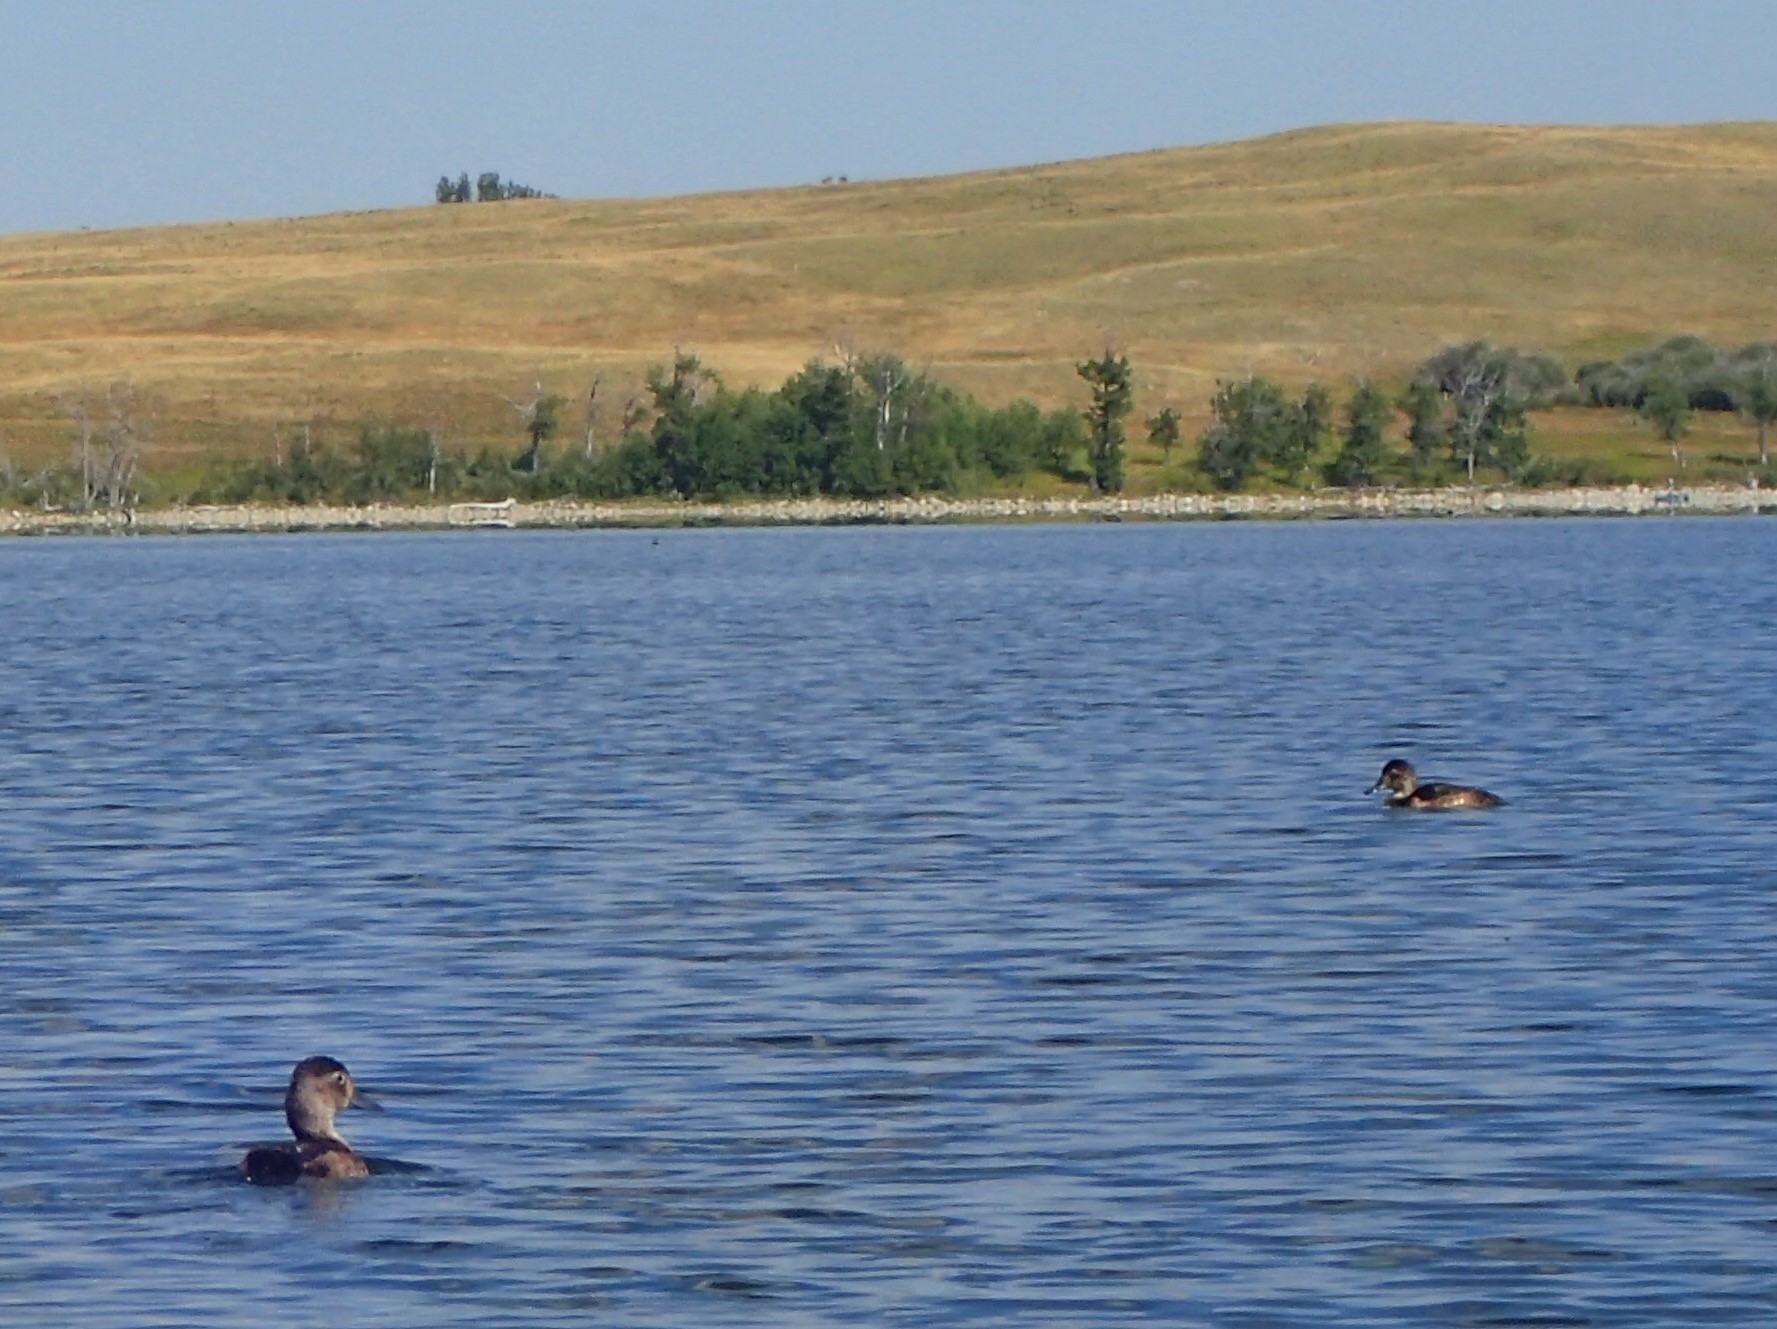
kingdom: Animalia
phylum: Chordata
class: Aves
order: Anseriformes
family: Anatidae
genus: Aythya
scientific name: Aythya collaris
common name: Ring-necked duck
